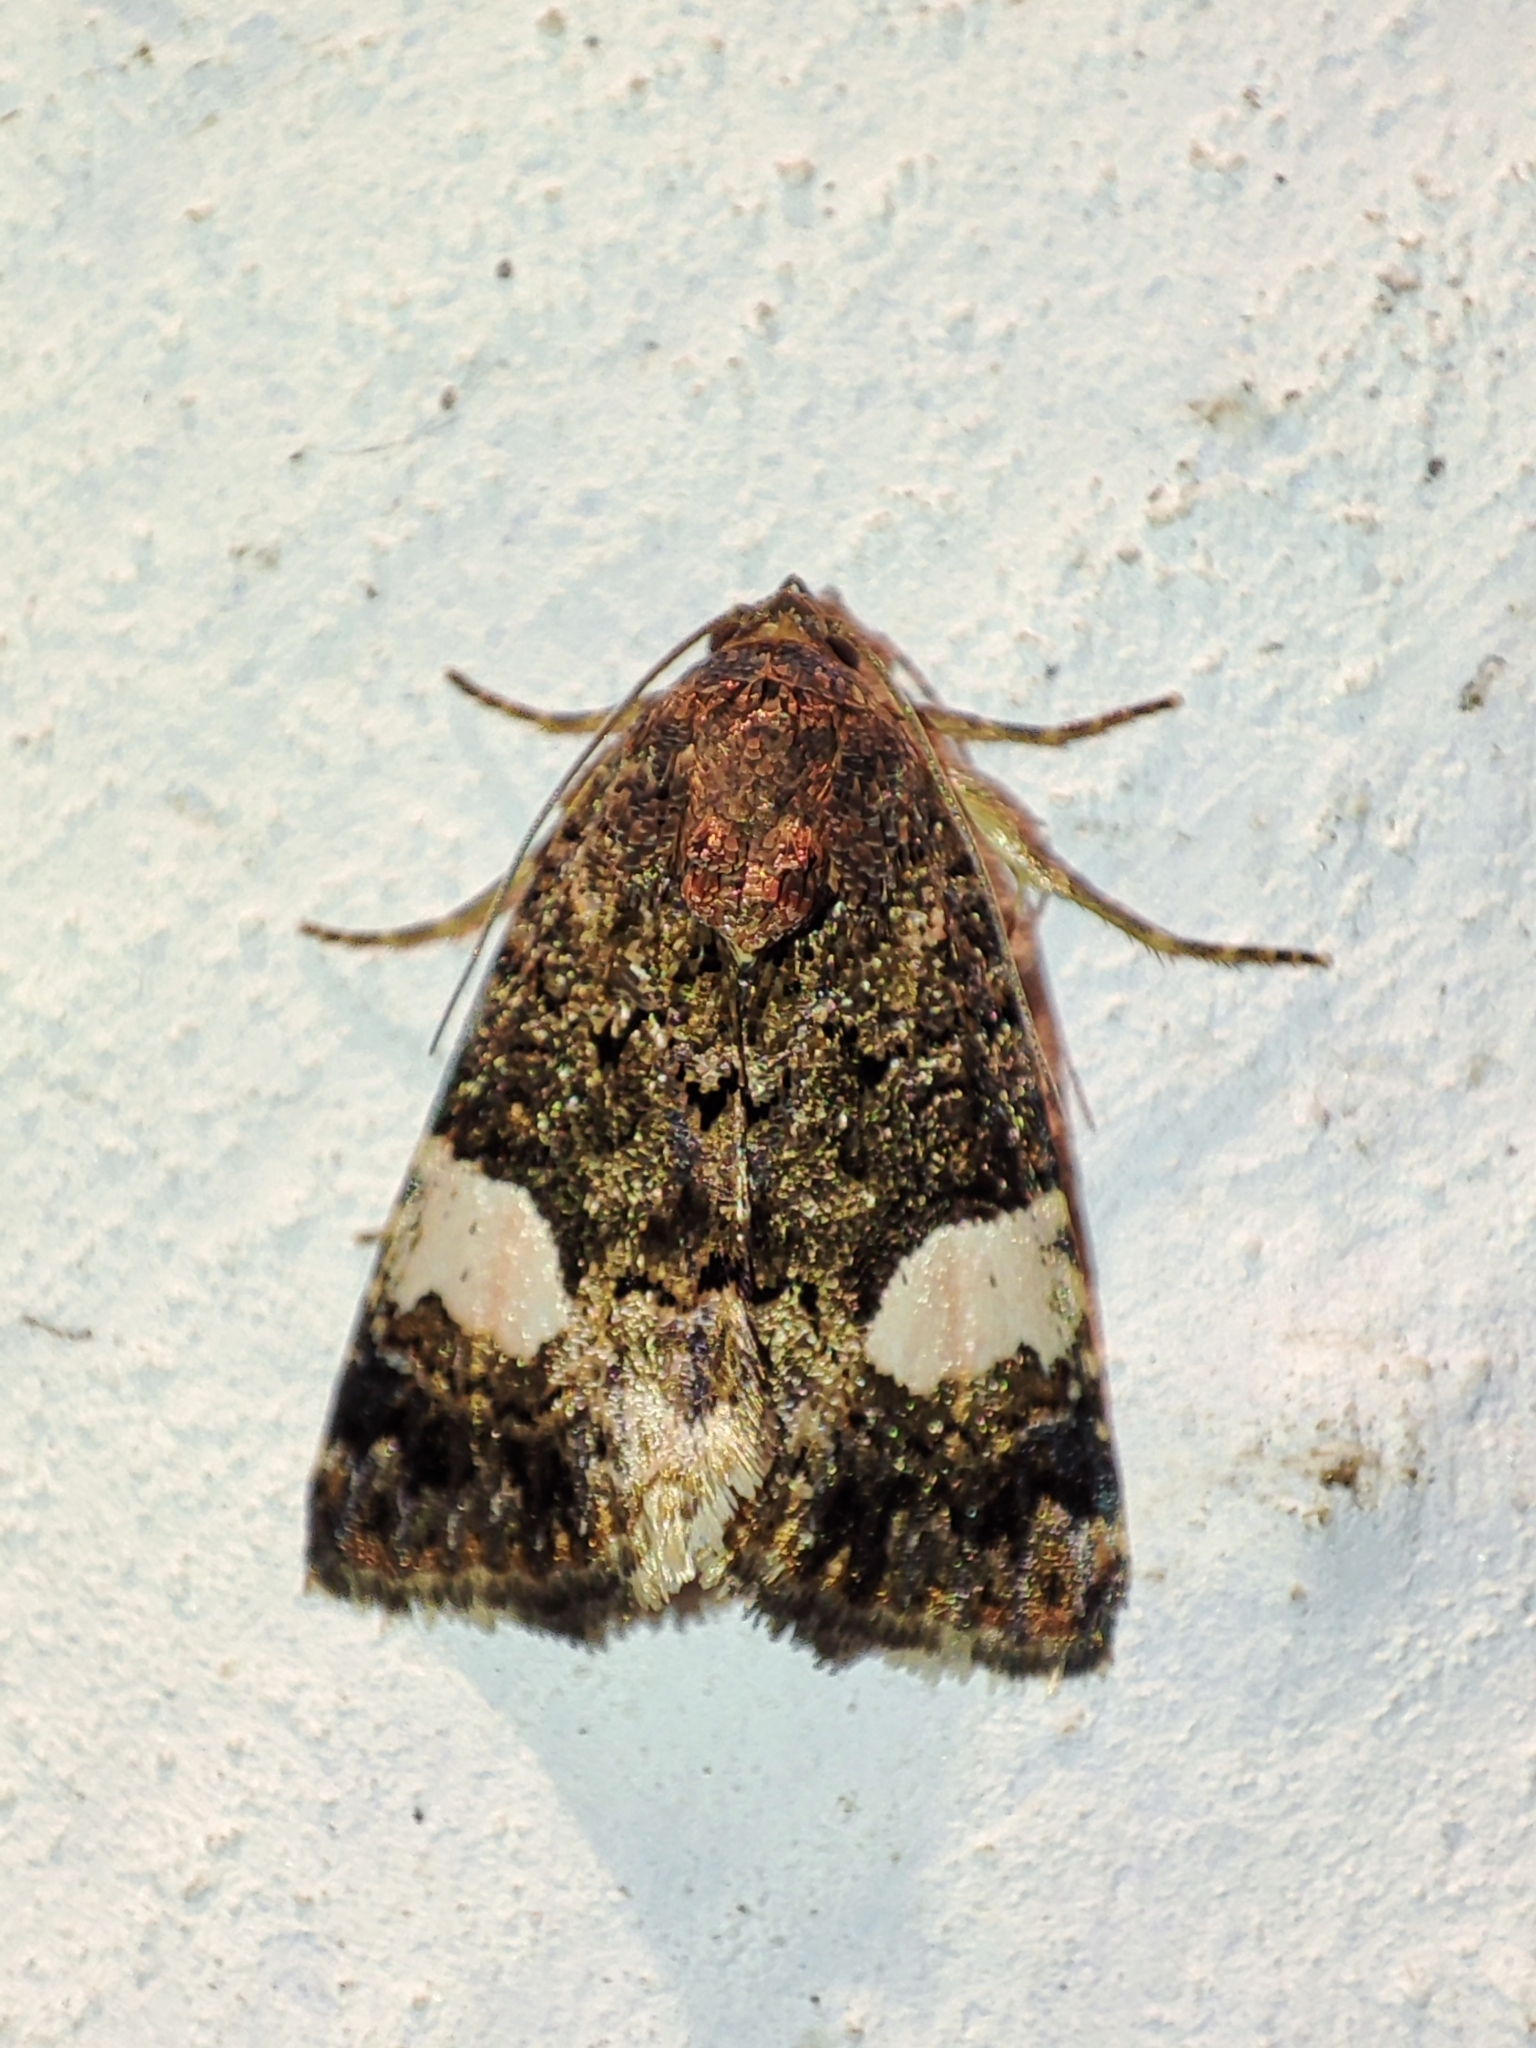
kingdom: Animalia
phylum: Arthropoda
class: Insecta
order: Lepidoptera
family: Erebidae
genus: Tyta
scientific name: Tyta luctuosa
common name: Four-spotted
